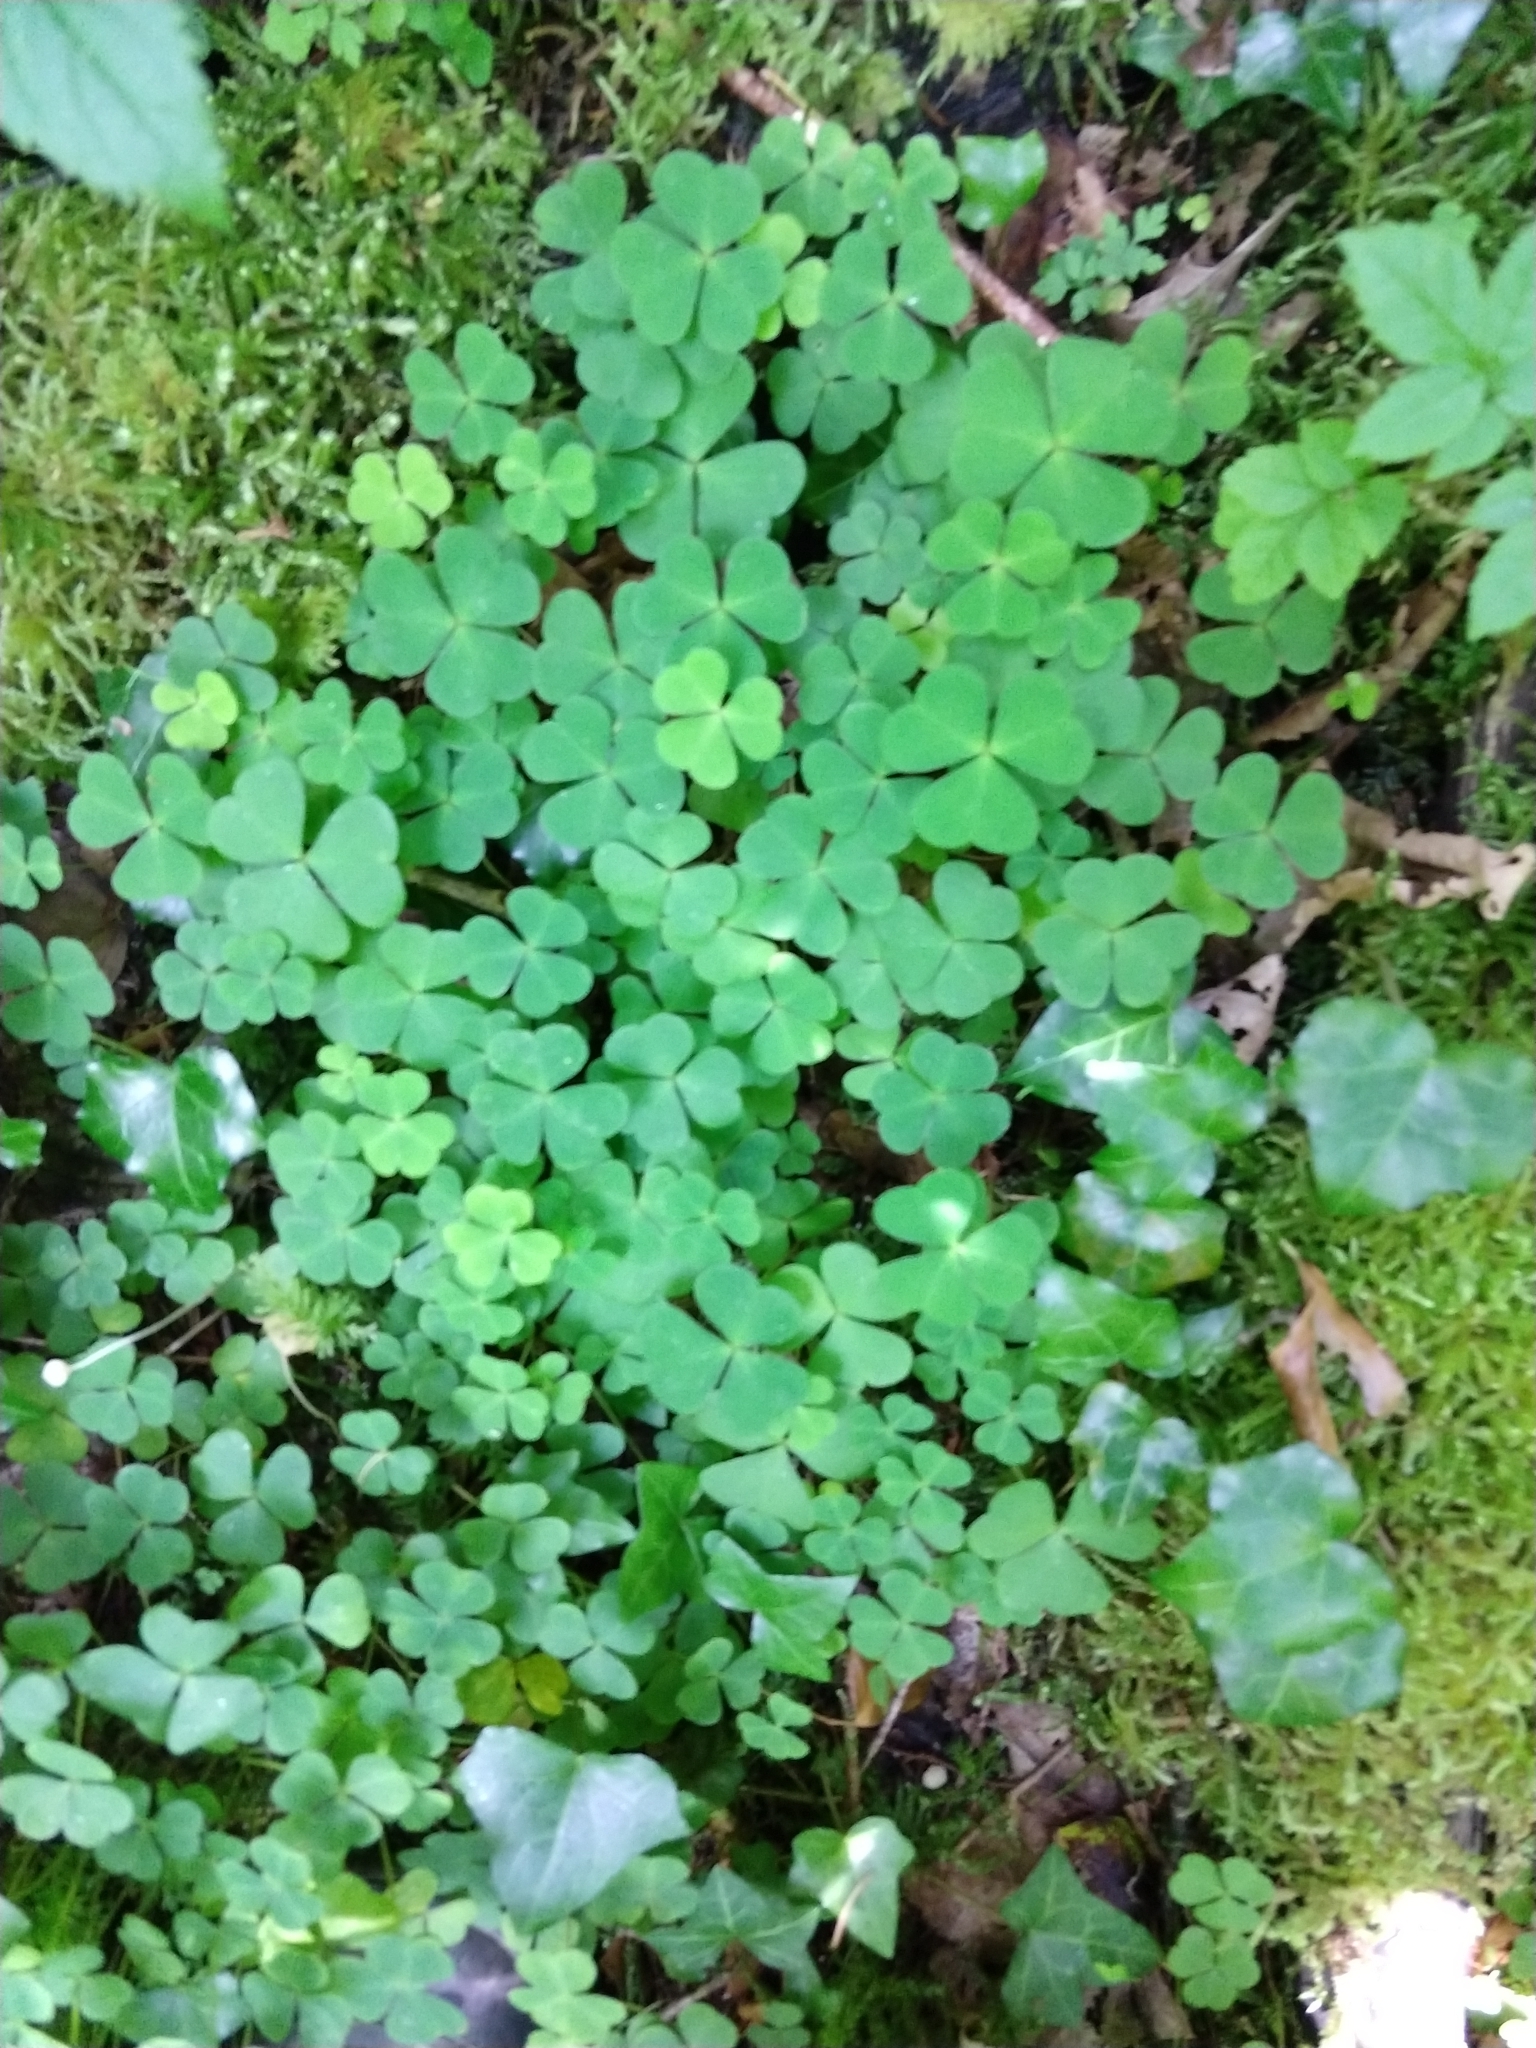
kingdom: Plantae
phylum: Tracheophyta
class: Magnoliopsida
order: Oxalidales
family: Oxalidaceae
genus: Oxalis
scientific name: Oxalis acetosella
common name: Wood-sorrel
